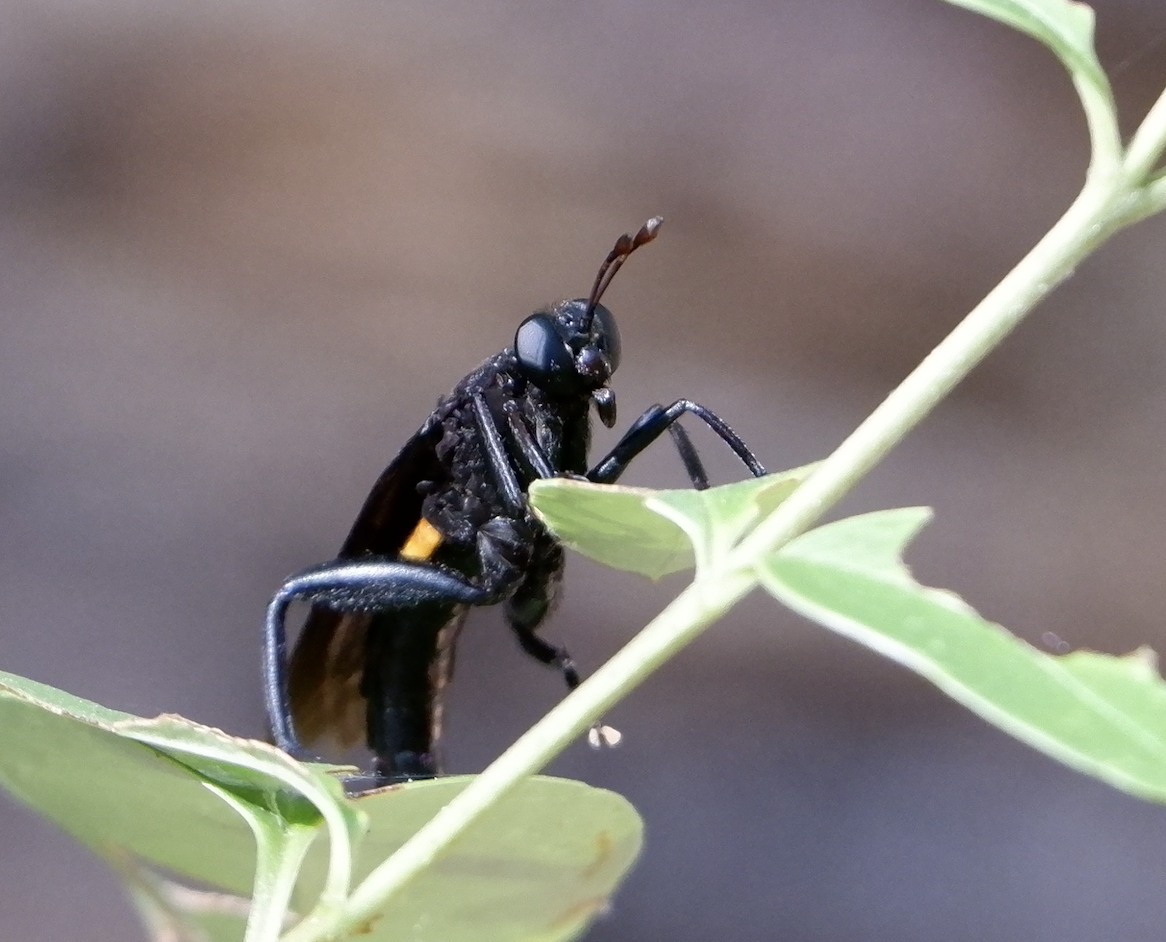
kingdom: Animalia
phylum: Arthropoda
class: Insecta
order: Diptera
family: Mydidae
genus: Mydas
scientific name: Mydas clavatus
